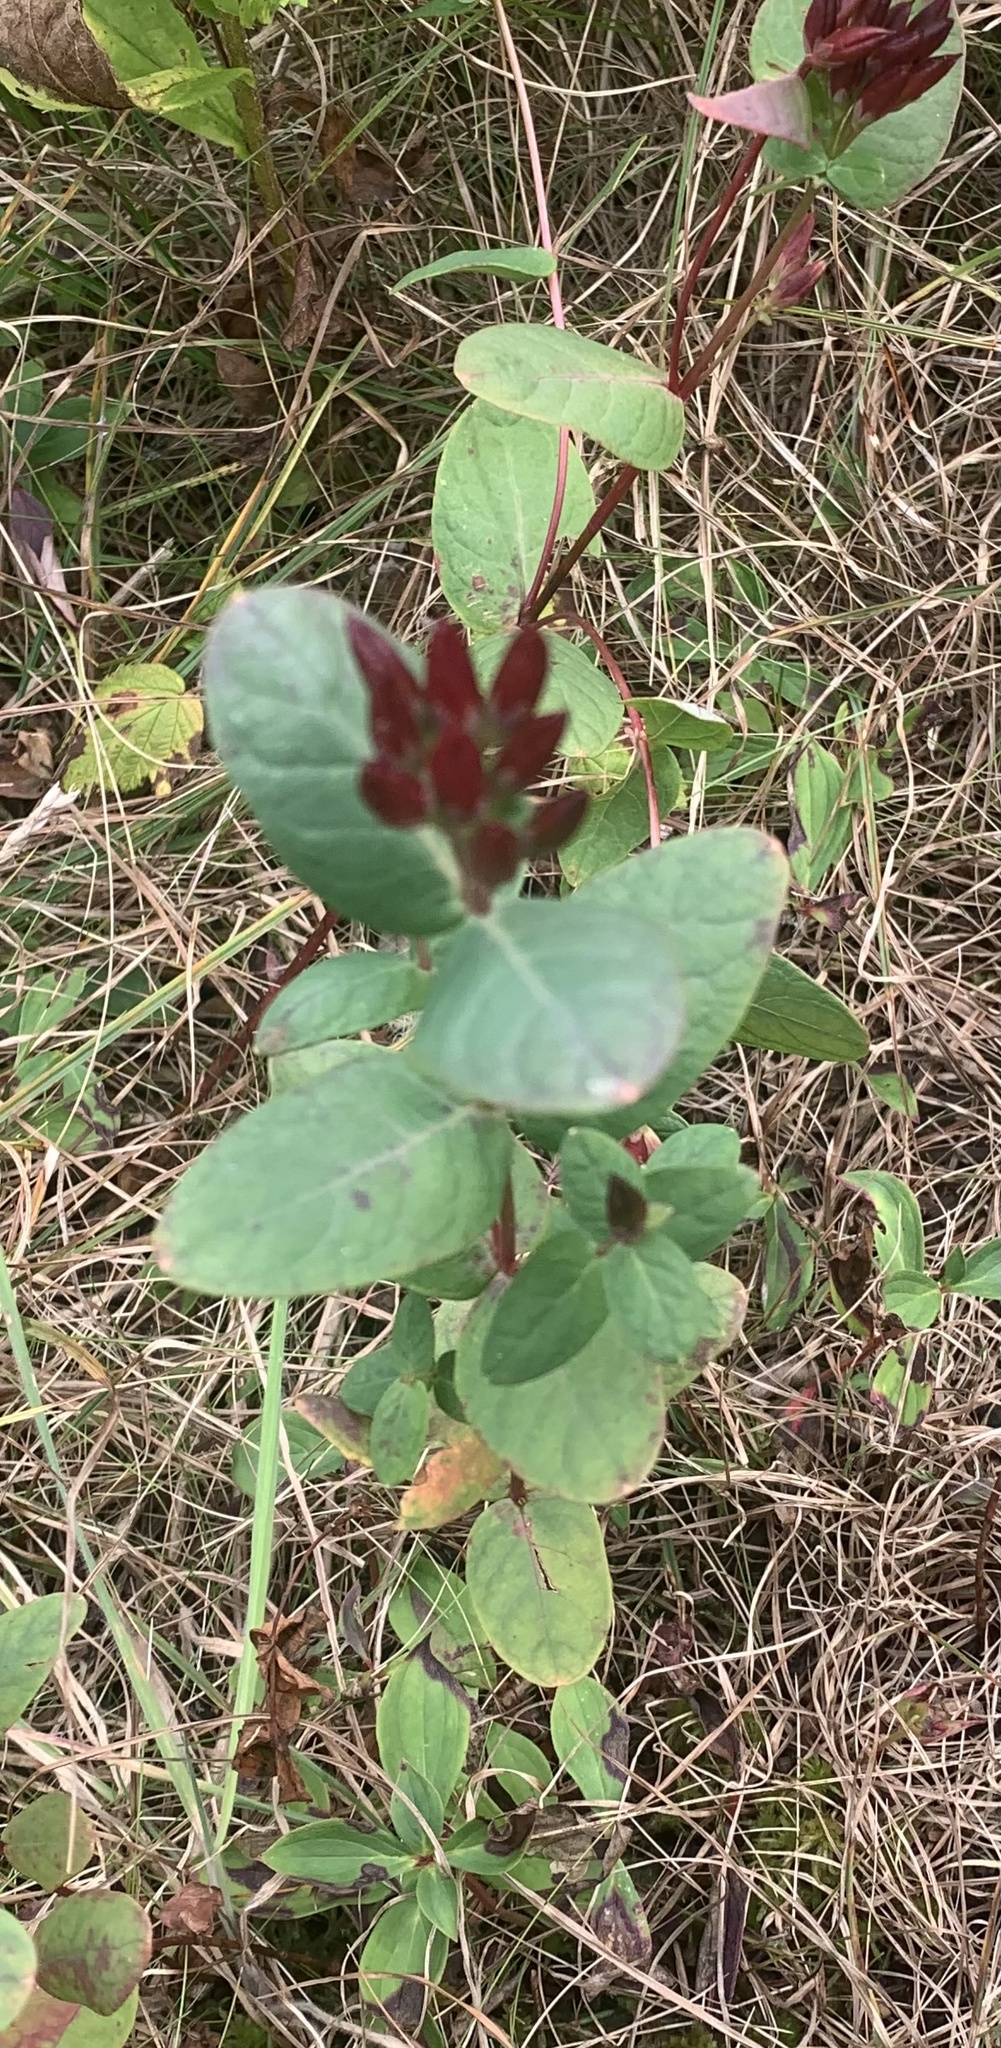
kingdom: Plantae
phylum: Tracheophyta
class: Magnoliopsida
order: Malpighiales
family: Hypericaceae
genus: Triadenum
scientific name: Triadenum fraseri
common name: Fraser's marsh st. johnswort
